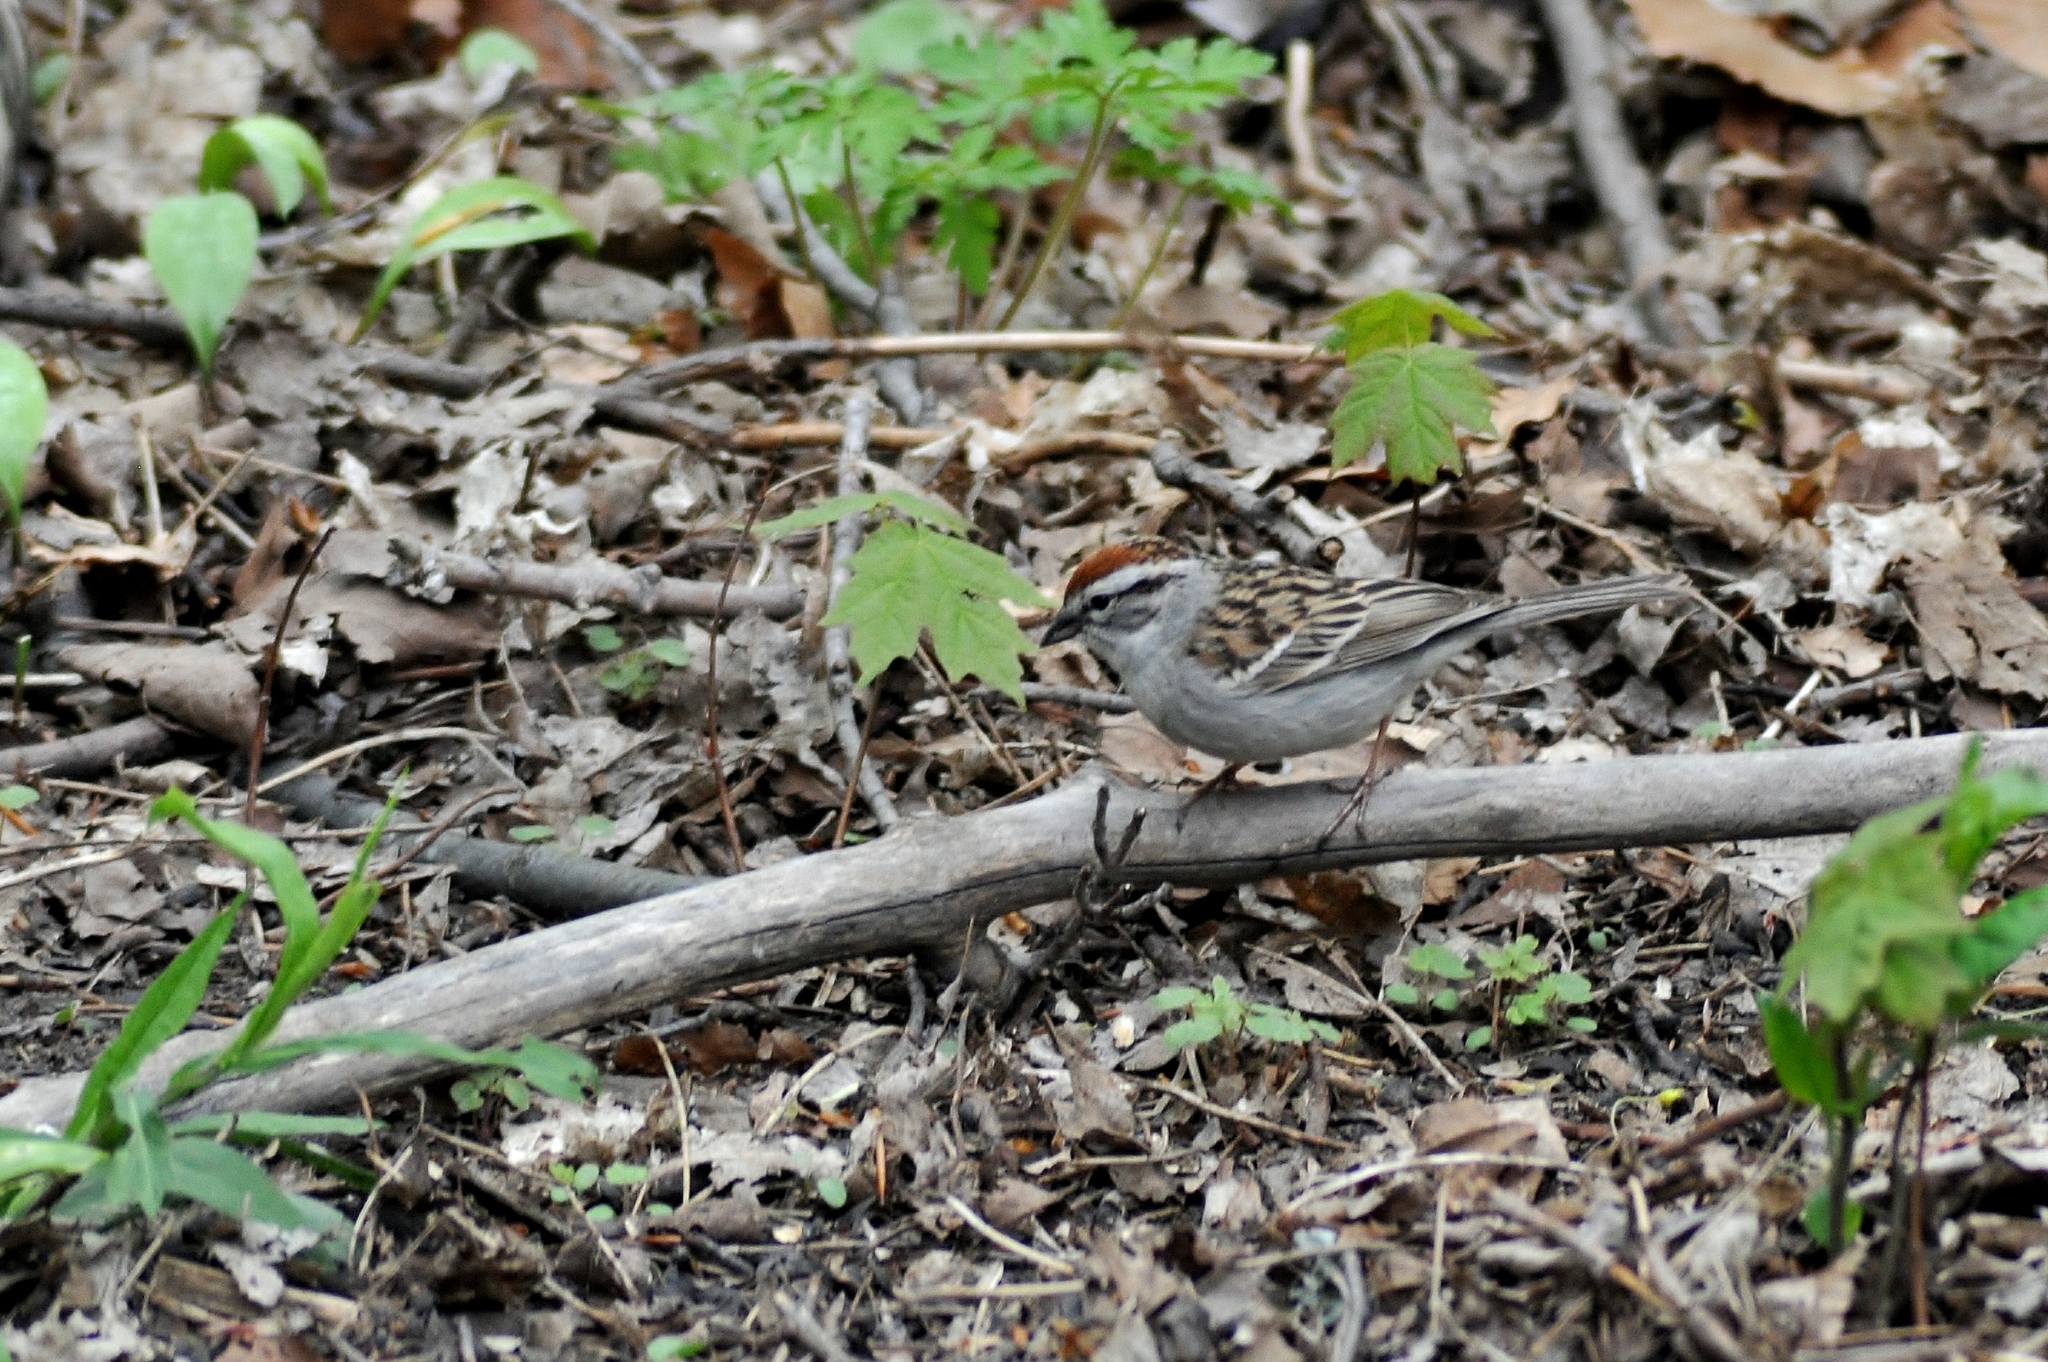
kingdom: Animalia
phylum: Chordata
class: Aves
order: Passeriformes
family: Passerellidae
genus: Spizella
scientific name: Spizella passerina
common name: Chipping sparrow
